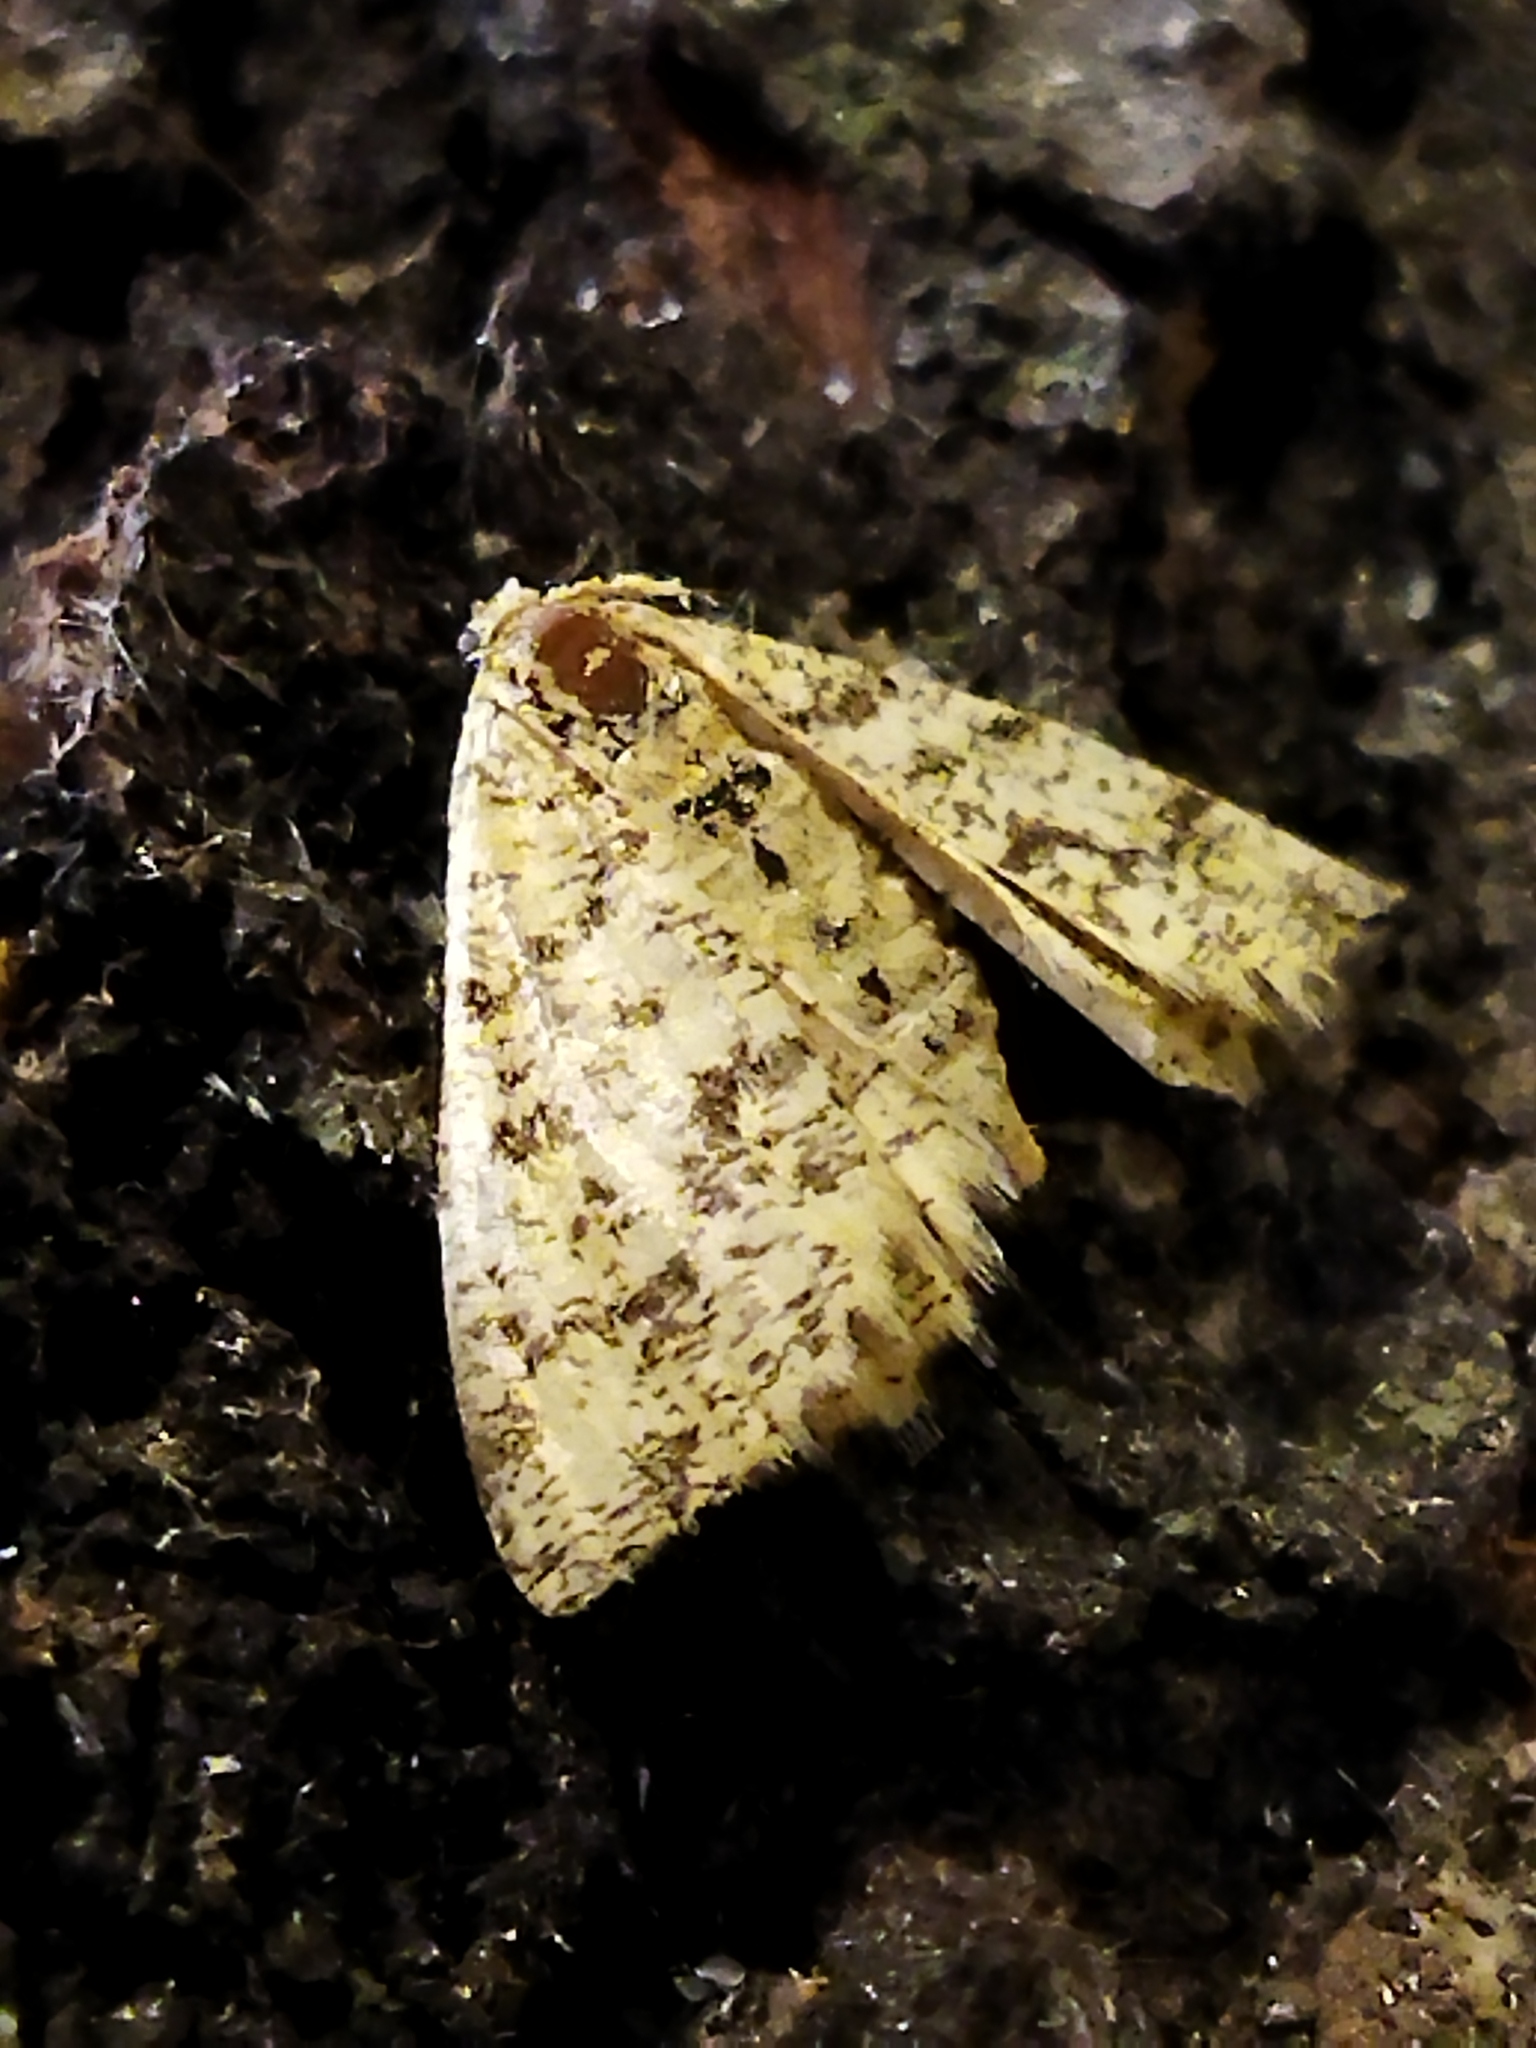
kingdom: Animalia
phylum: Arthropoda
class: Insecta
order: Lepidoptera
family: Geometridae
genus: Heliomata
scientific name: Heliomata glarearia
